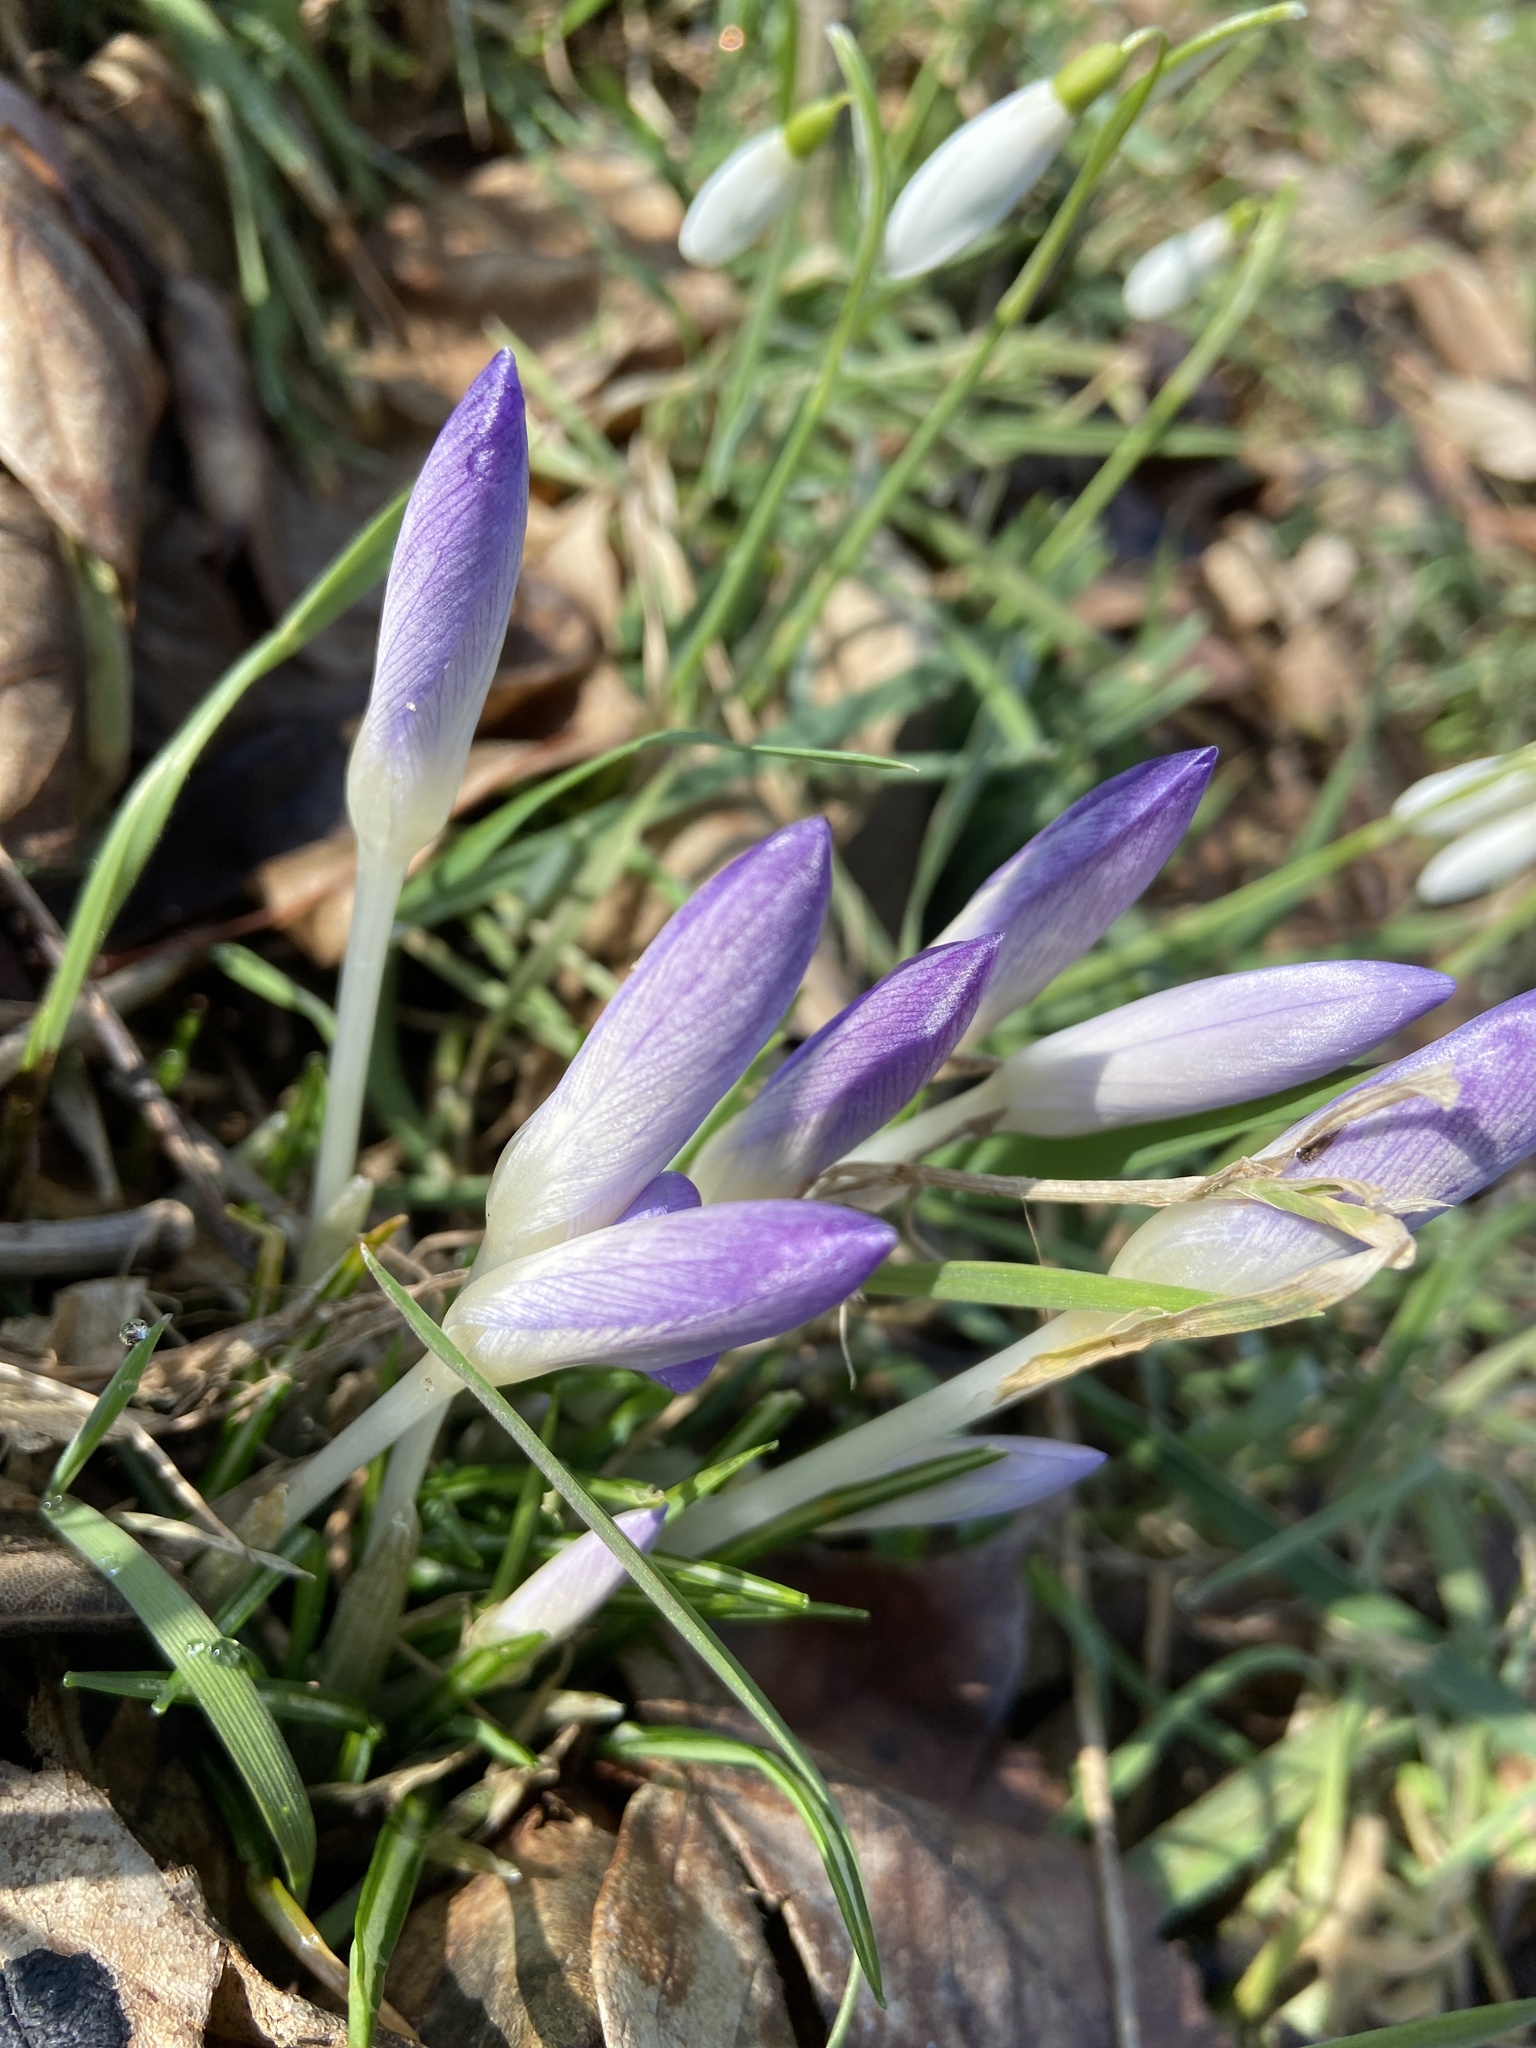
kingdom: Plantae
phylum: Tracheophyta
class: Liliopsida
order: Asparagales
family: Iridaceae
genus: Crocus
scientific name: Crocus tommasinianus
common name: Early crocus
